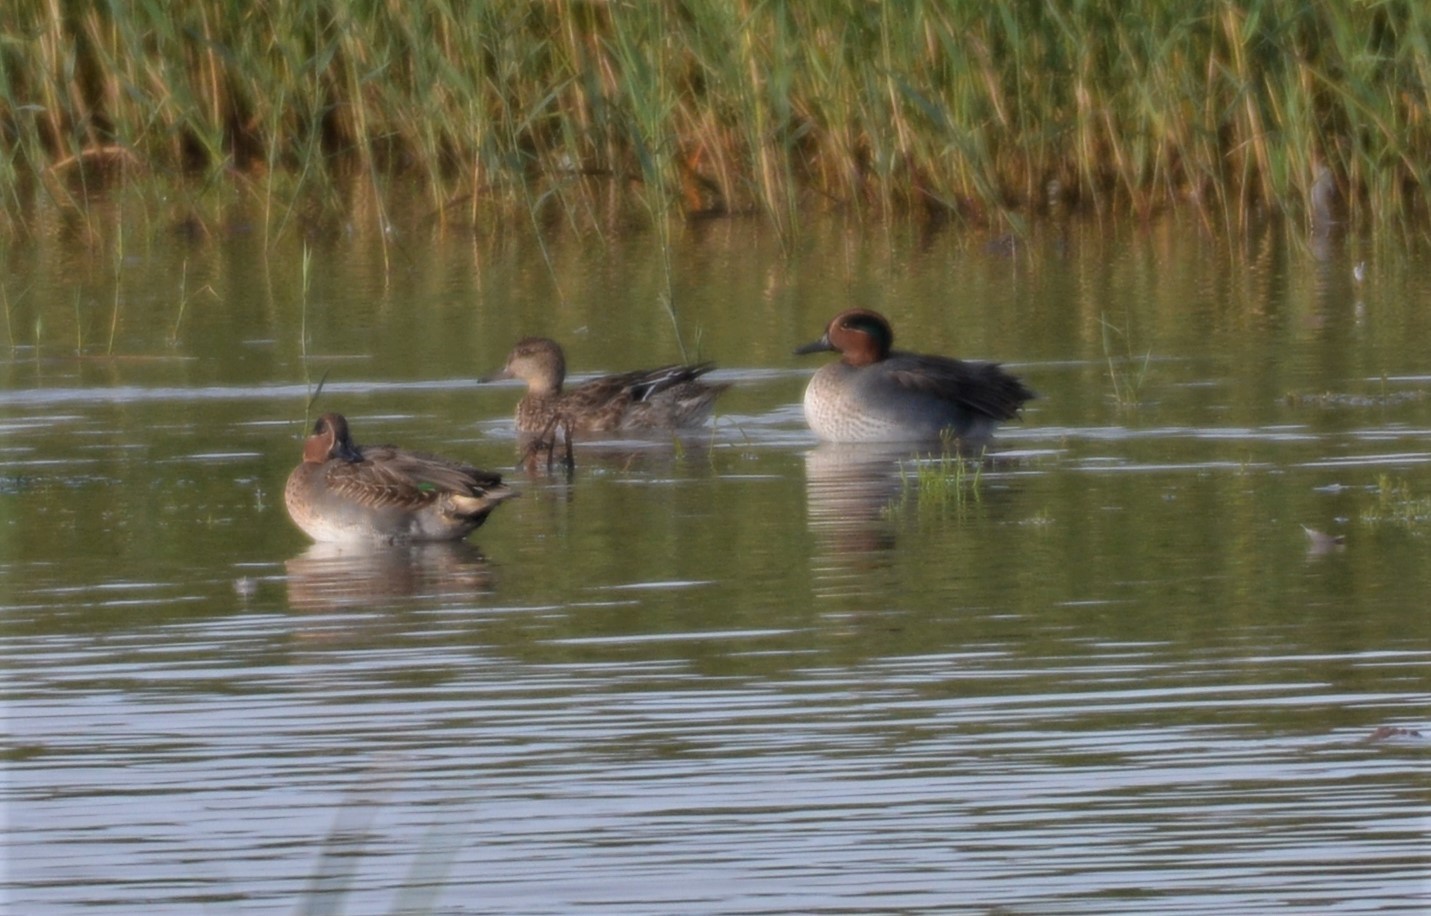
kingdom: Animalia
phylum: Chordata
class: Aves
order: Anseriformes
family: Anatidae
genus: Anas
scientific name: Anas crecca
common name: Eurasian teal
